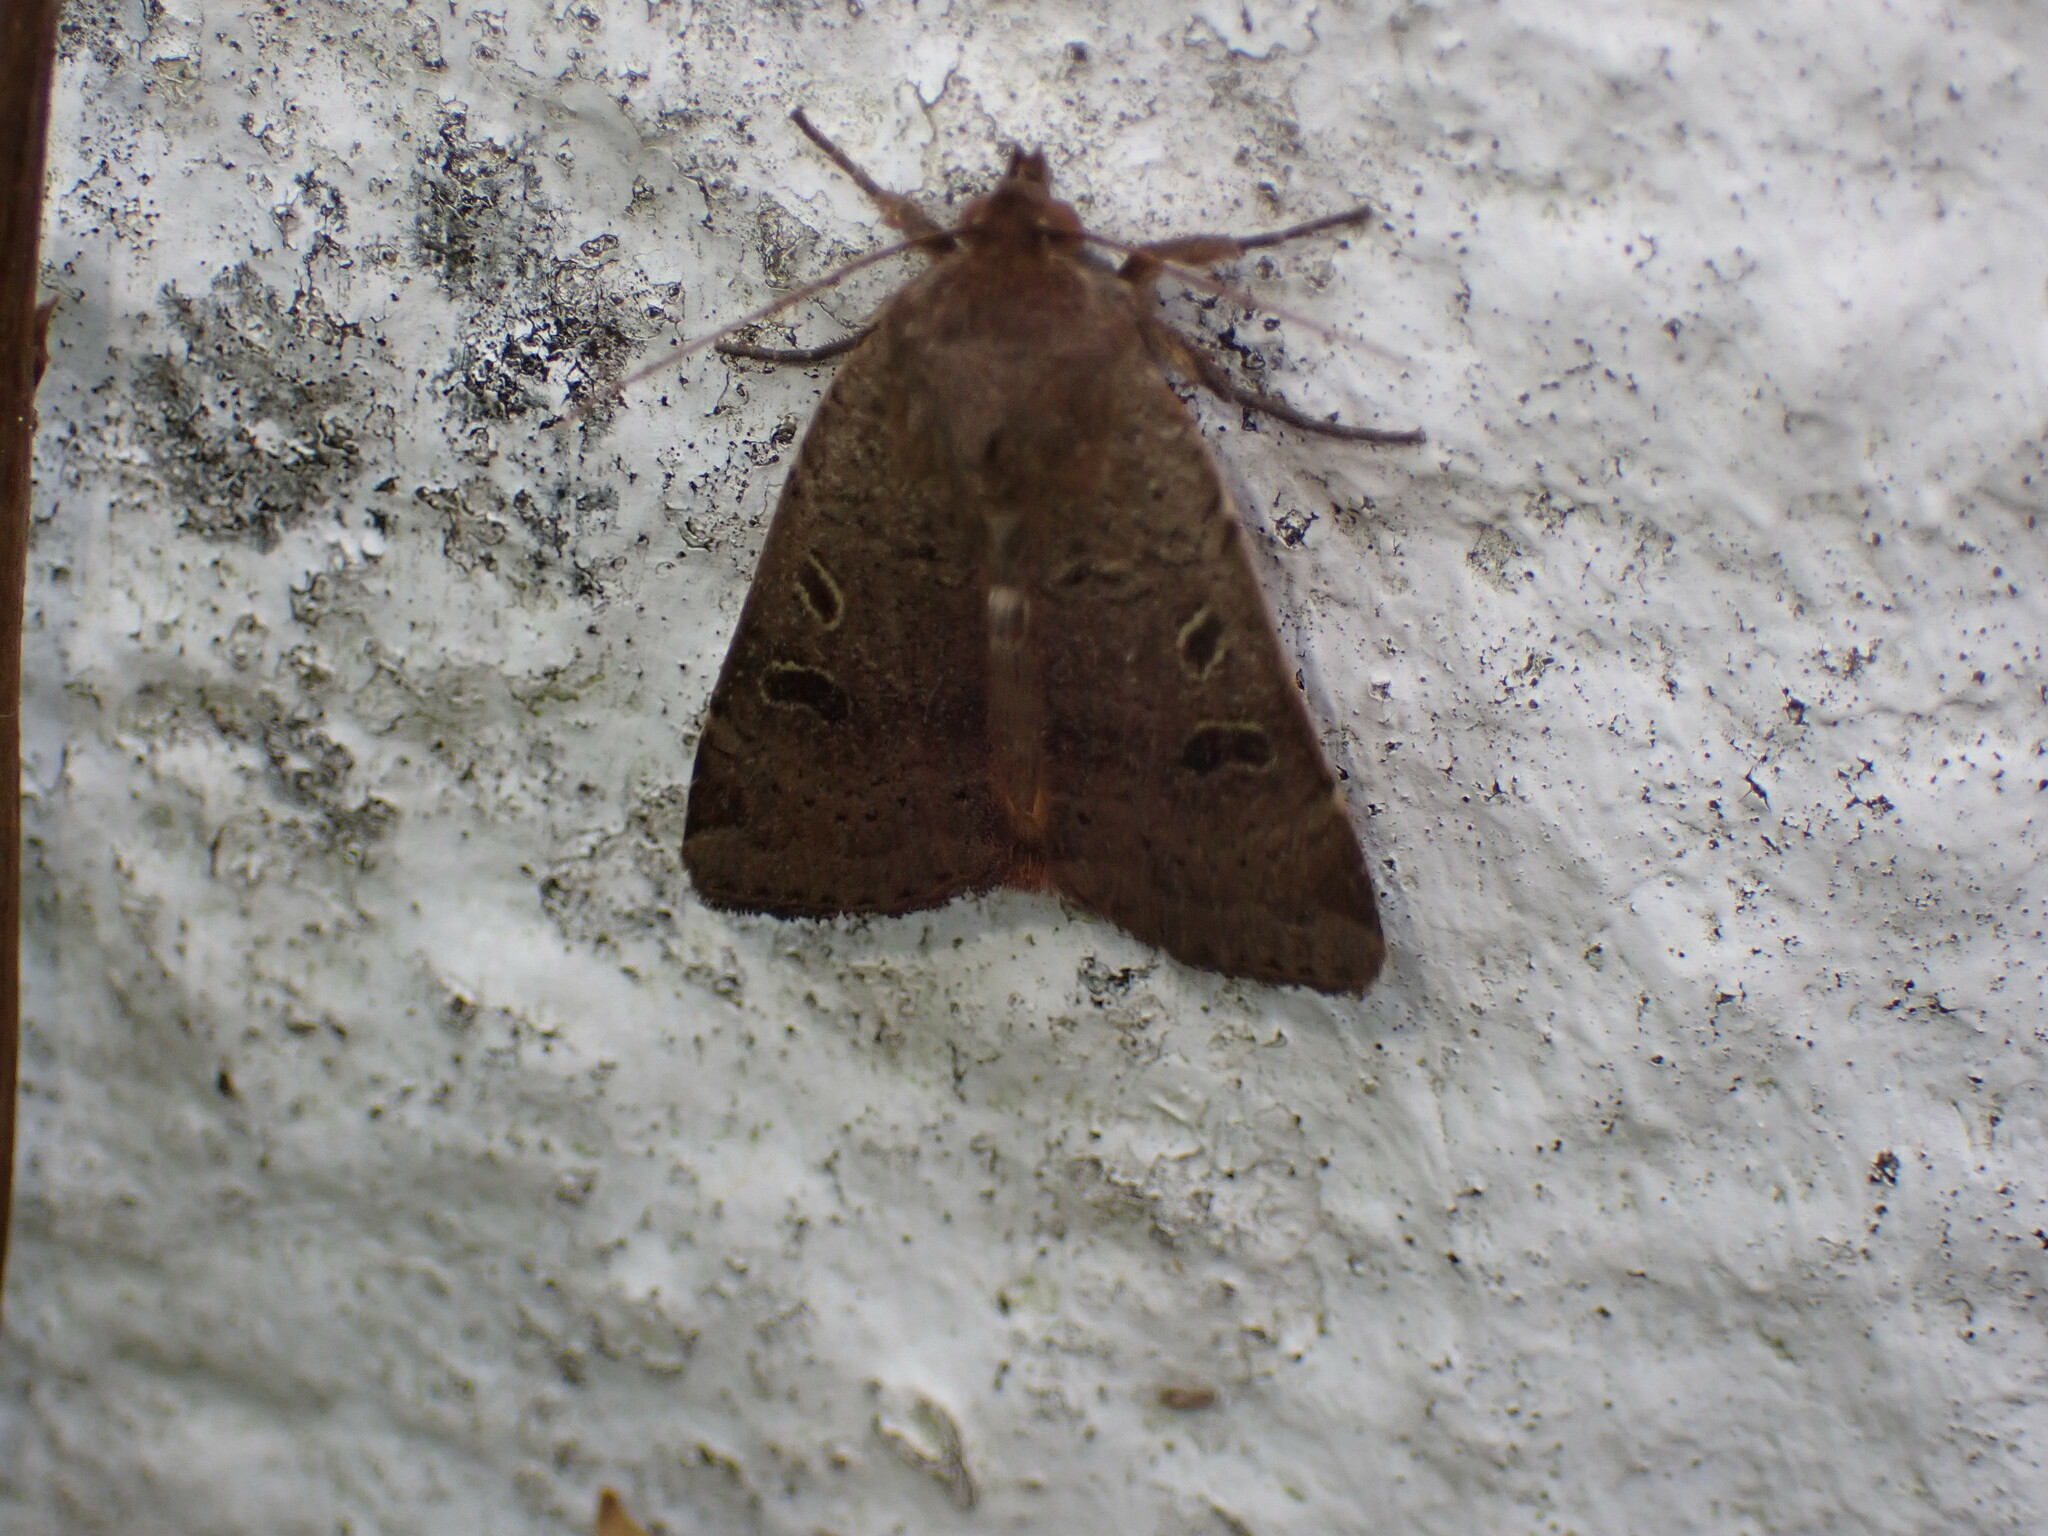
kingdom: Animalia
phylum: Arthropoda
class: Insecta
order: Lepidoptera
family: Noctuidae
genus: Noctua
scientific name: Noctua comes
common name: Lesser yellow underwing
